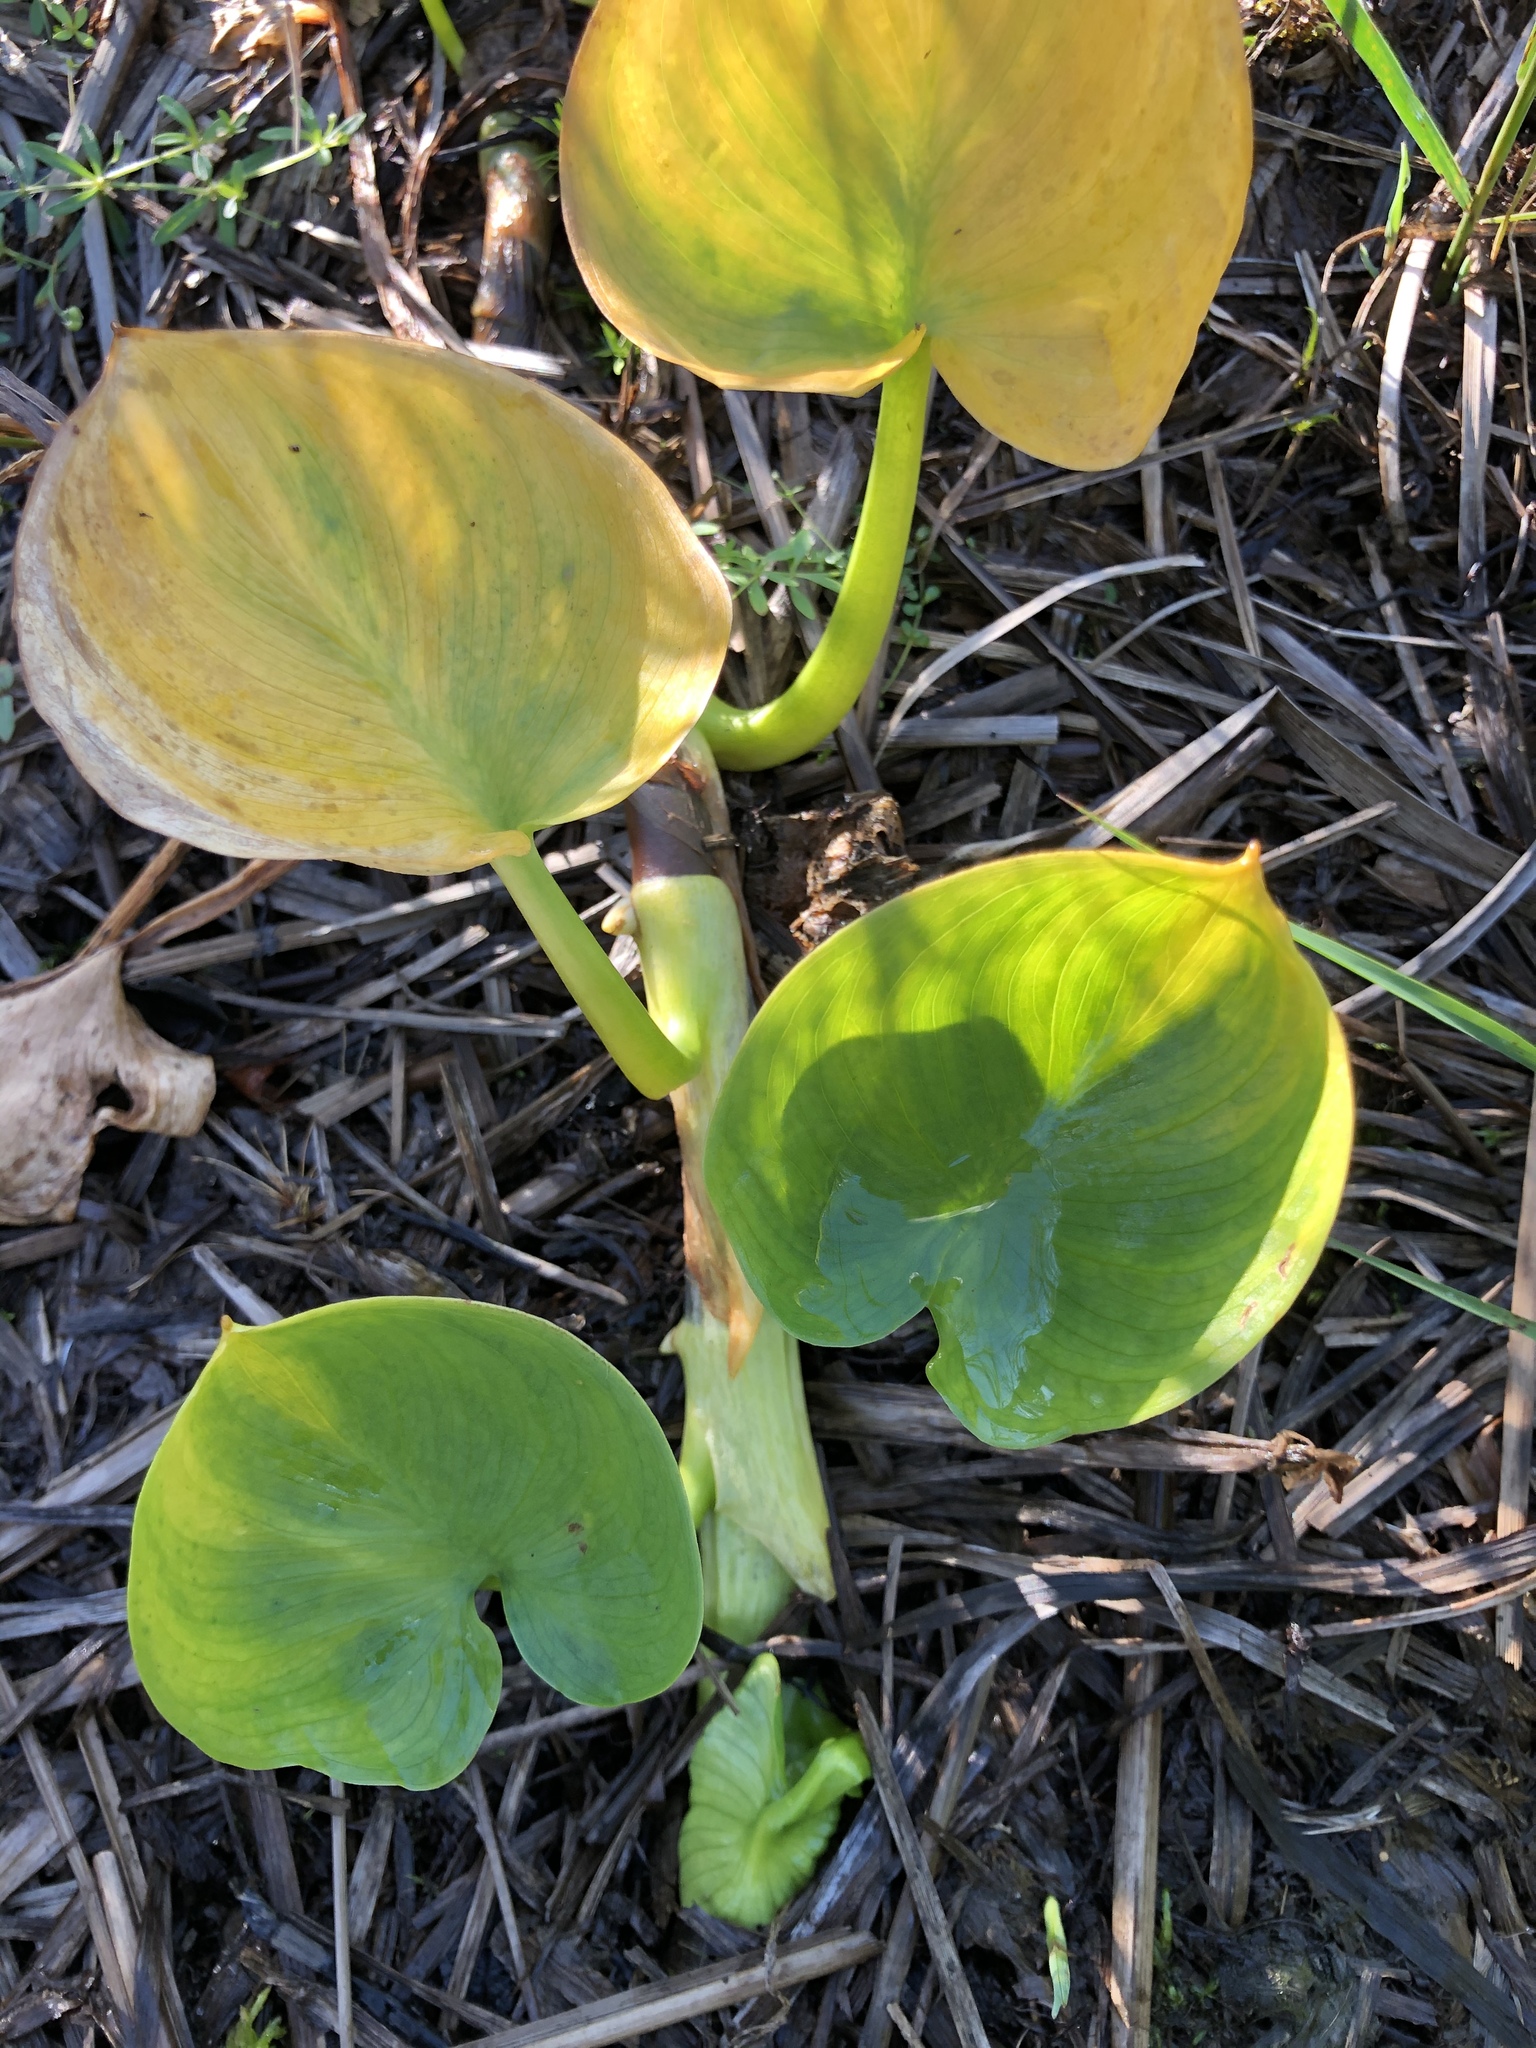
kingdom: Plantae
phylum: Tracheophyta
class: Liliopsida
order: Alismatales
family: Araceae
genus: Calla
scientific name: Calla palustris
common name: Bog arum
